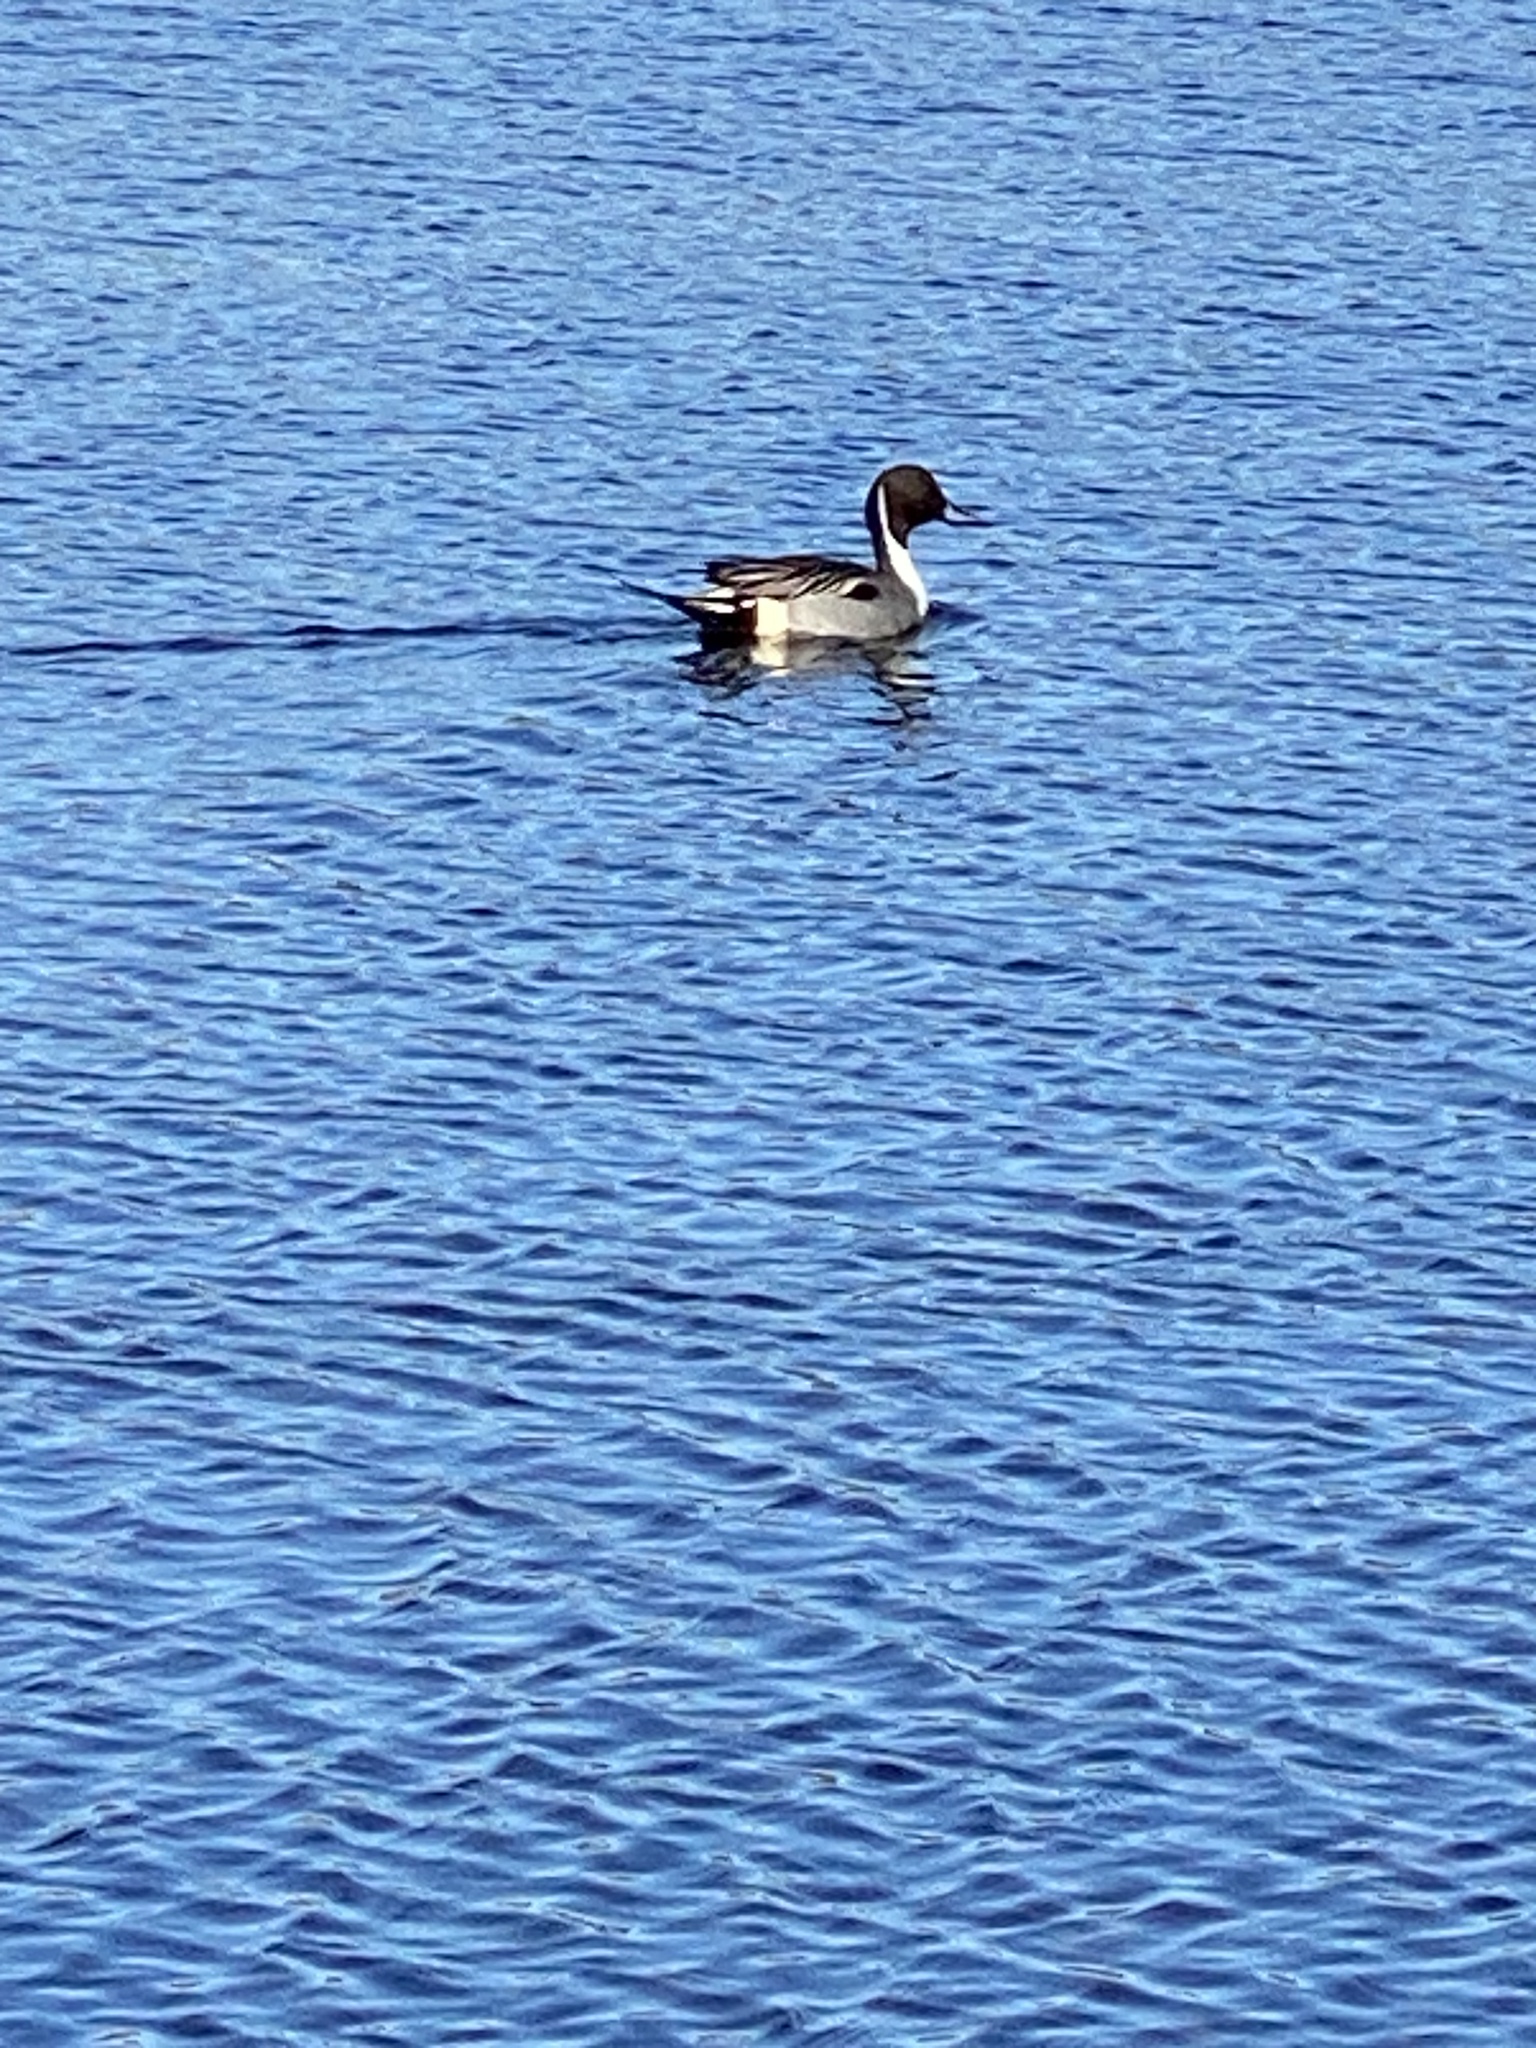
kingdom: Animalia
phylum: Chordata
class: Aves
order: Anseriformes
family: Anatidae
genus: Anas
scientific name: Anas acuta
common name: Northern pintail
